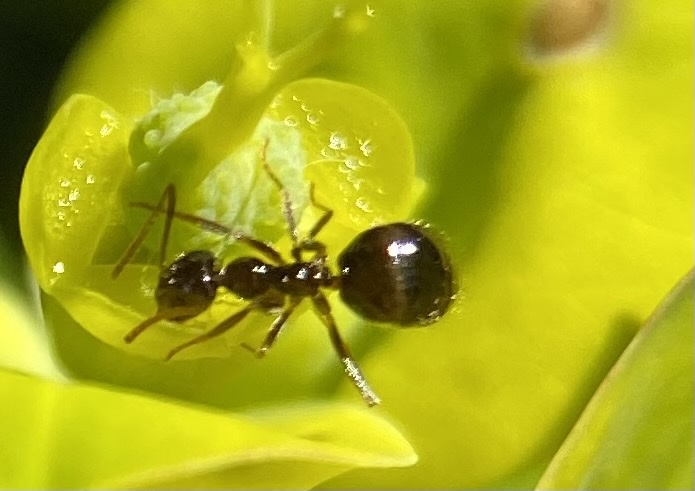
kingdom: Animalia
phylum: Arthropoda
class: Insecta
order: Hymenoptera
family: Formicidae
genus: Prenolepis
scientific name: Prenolepis imparis
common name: Small honey ant
